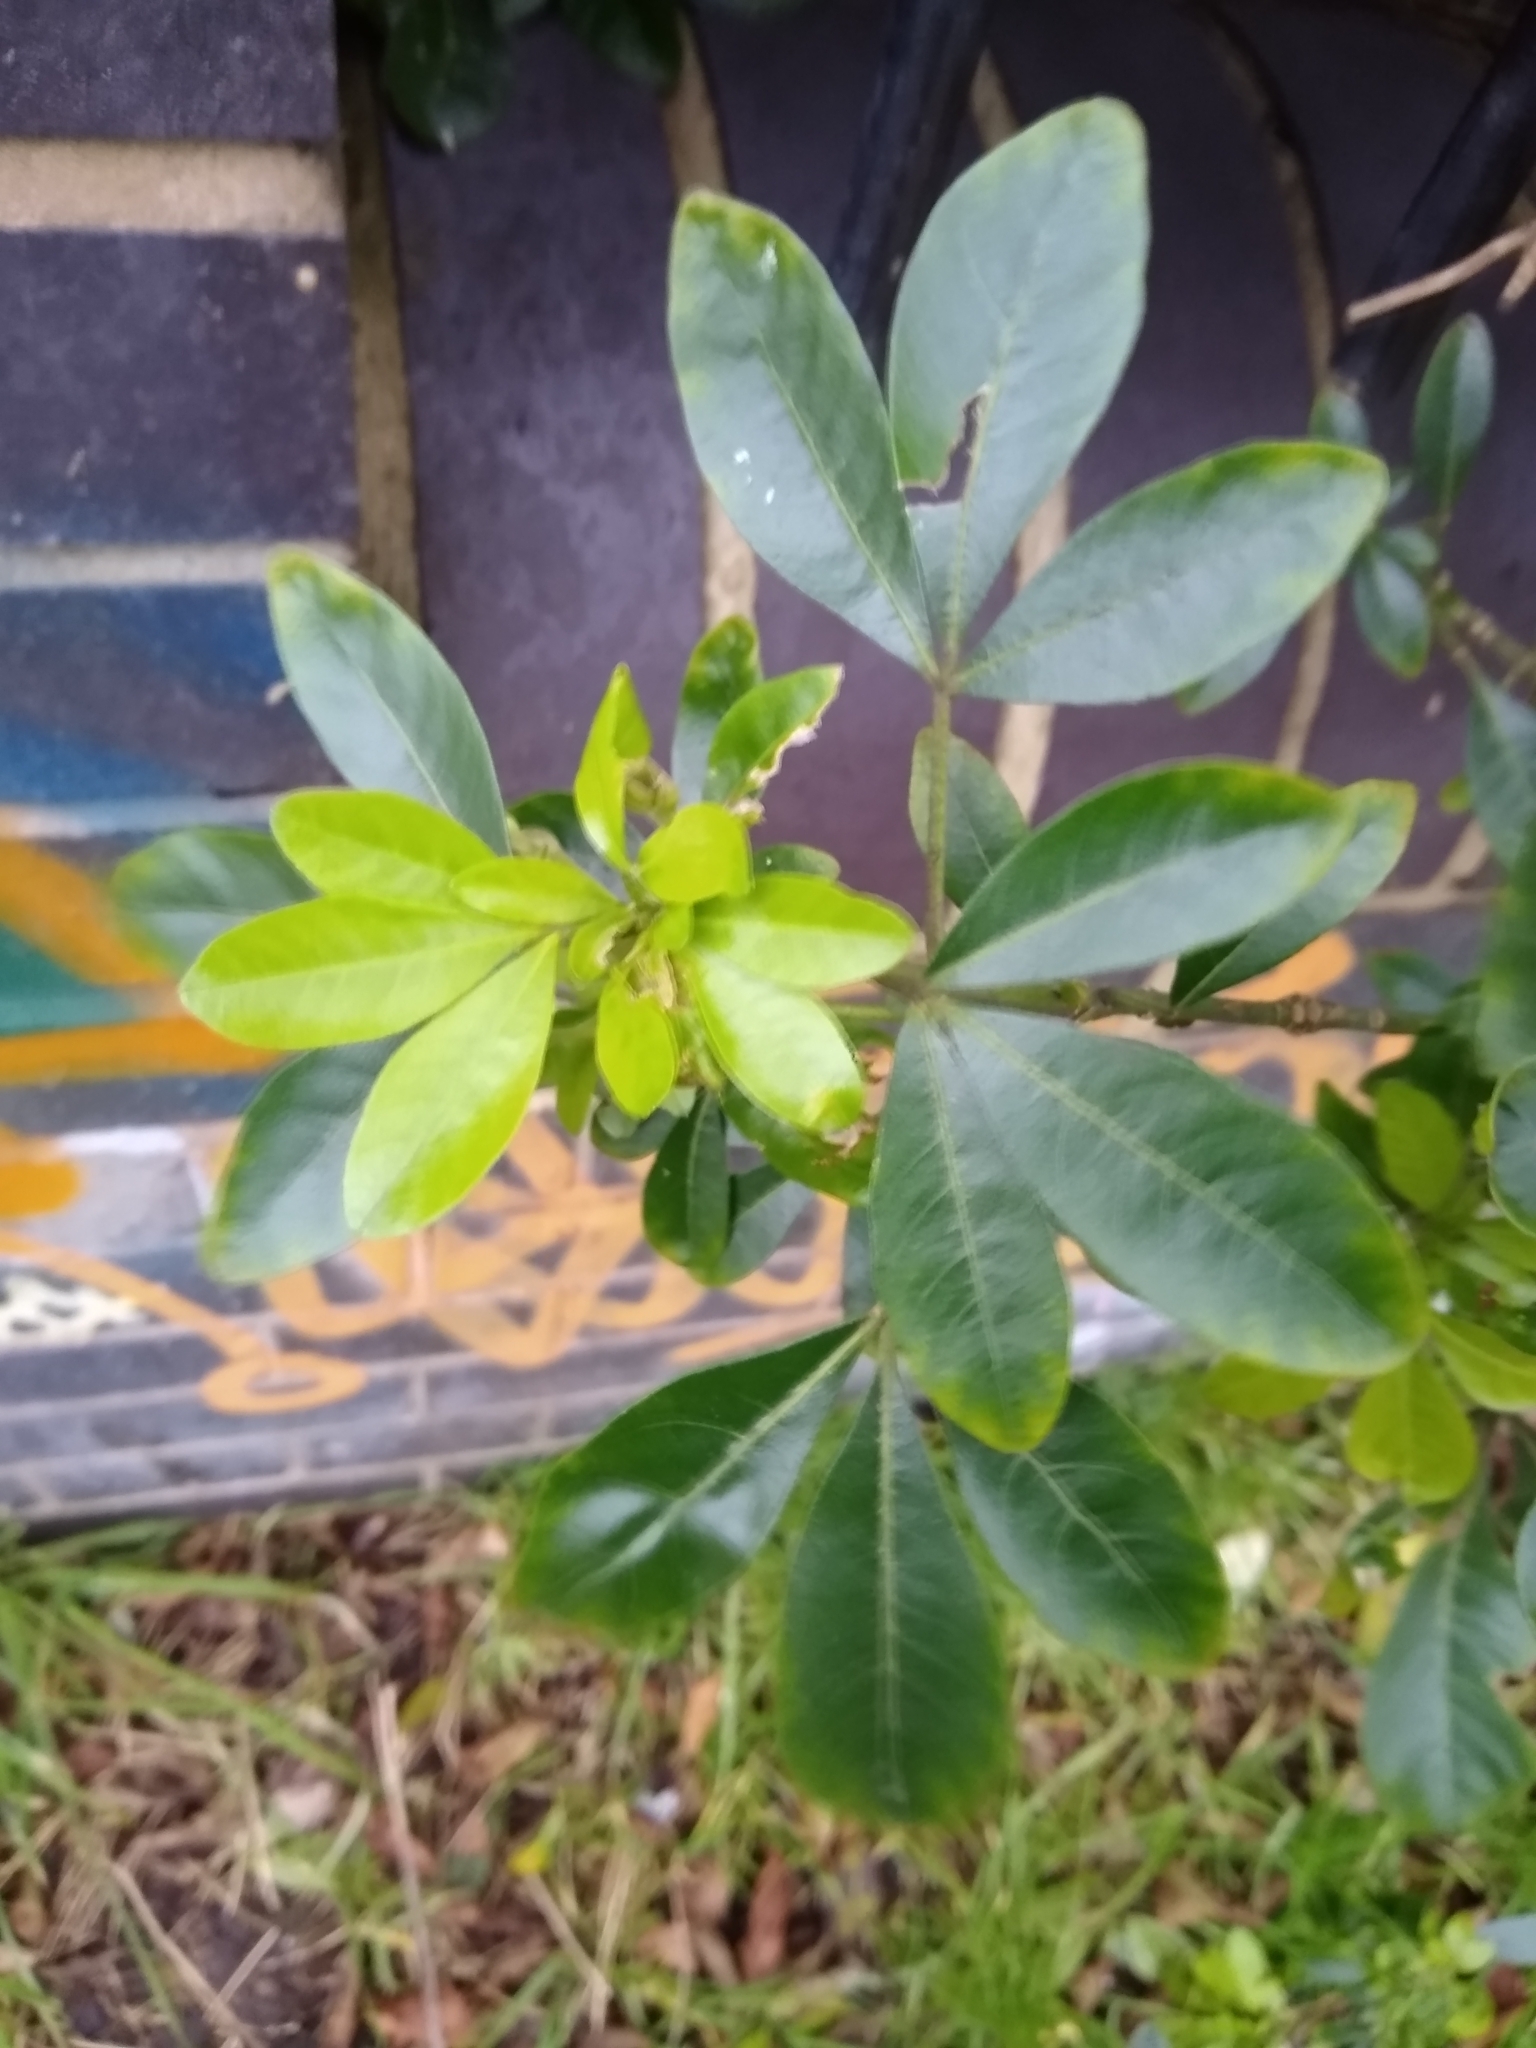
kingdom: Plantae
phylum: Tracheophyta
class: Magnoliopsida
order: Sapindales
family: Rutaceae
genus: Choisya
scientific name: Choisya ternata
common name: Mexican orange
